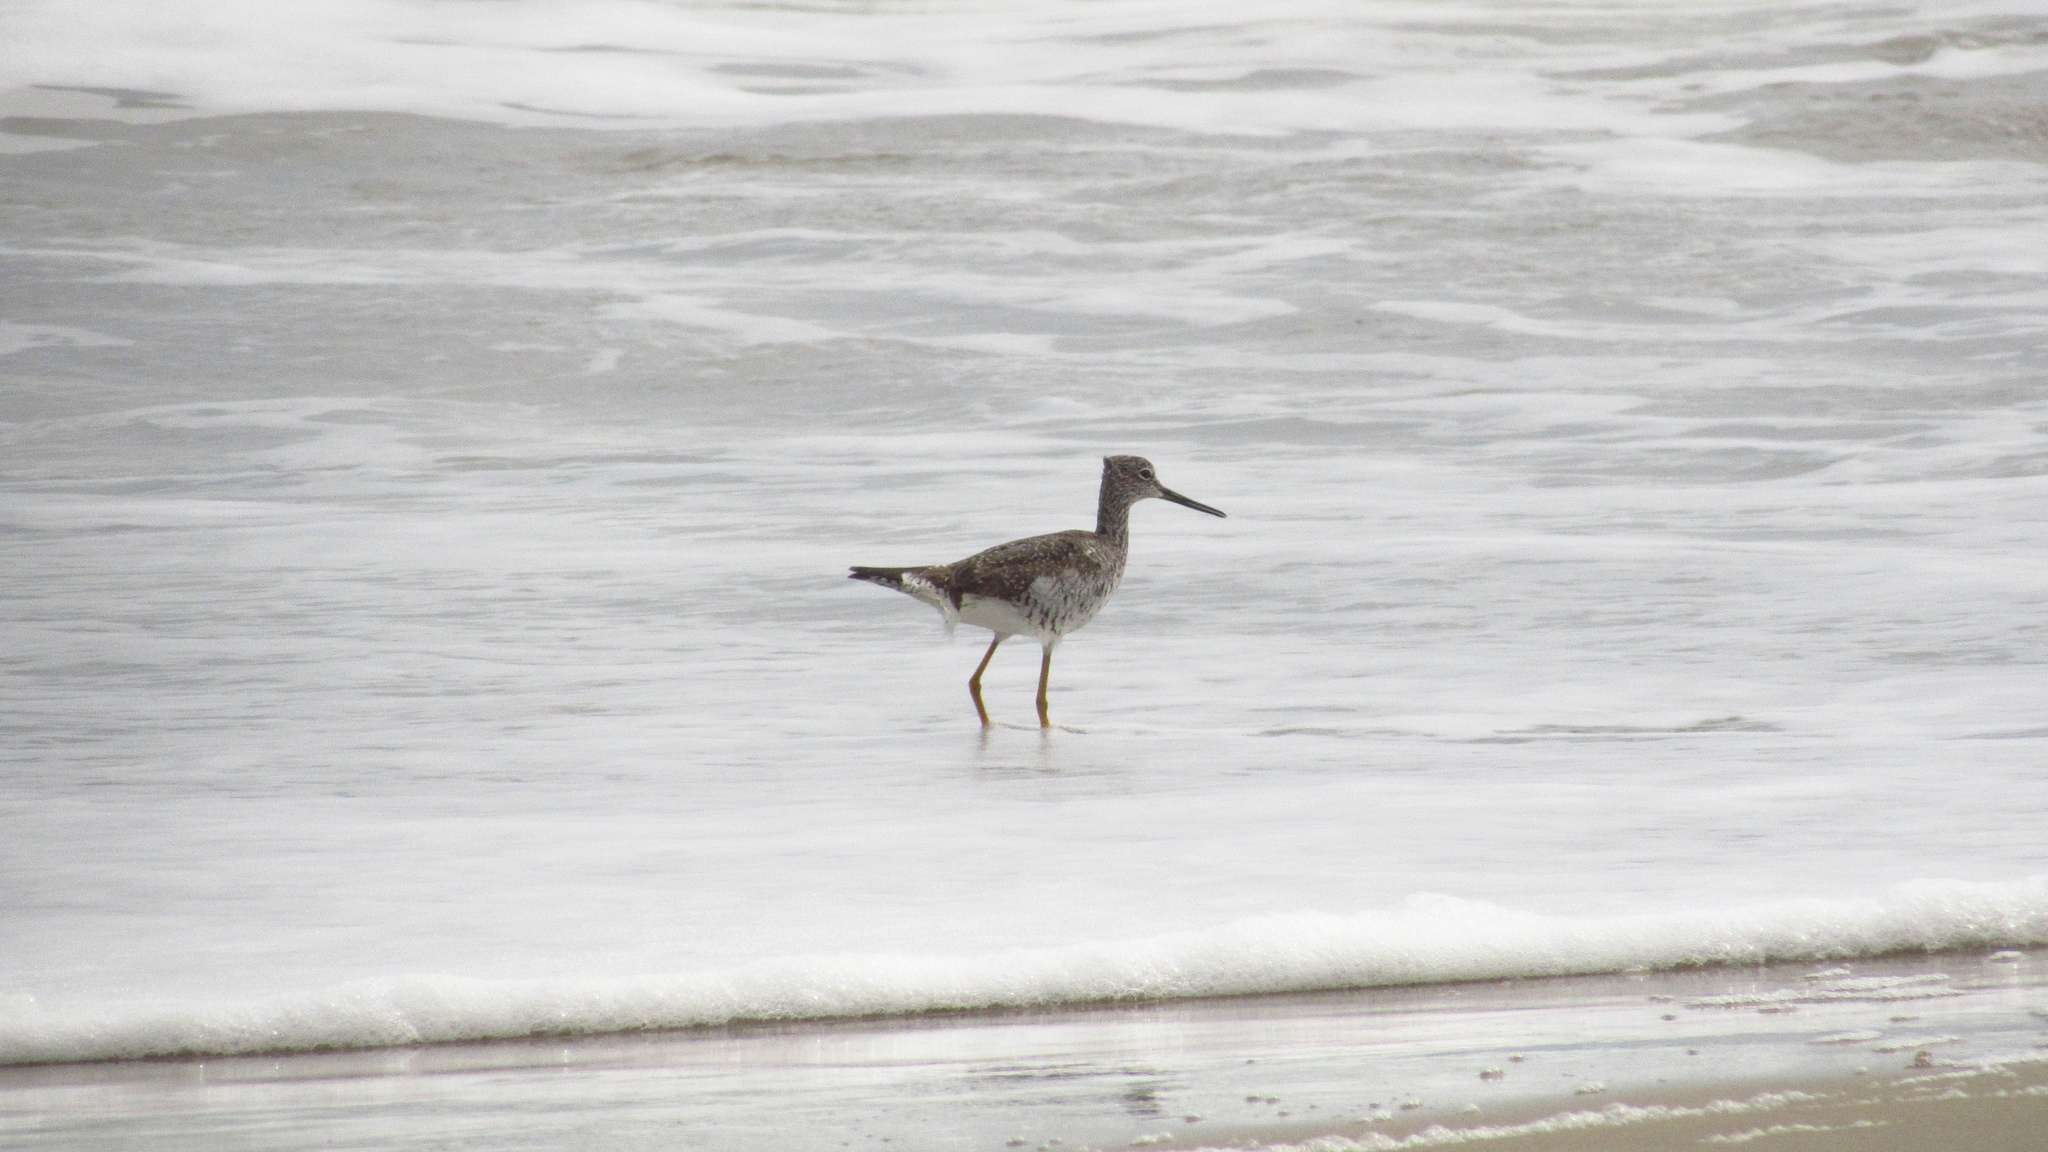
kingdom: Animalia
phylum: Chordata
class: Aves
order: Charadriiformes
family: Scolopacidae
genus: Tringa
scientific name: Tringa melanoleuca
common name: Greater yellowlegs
